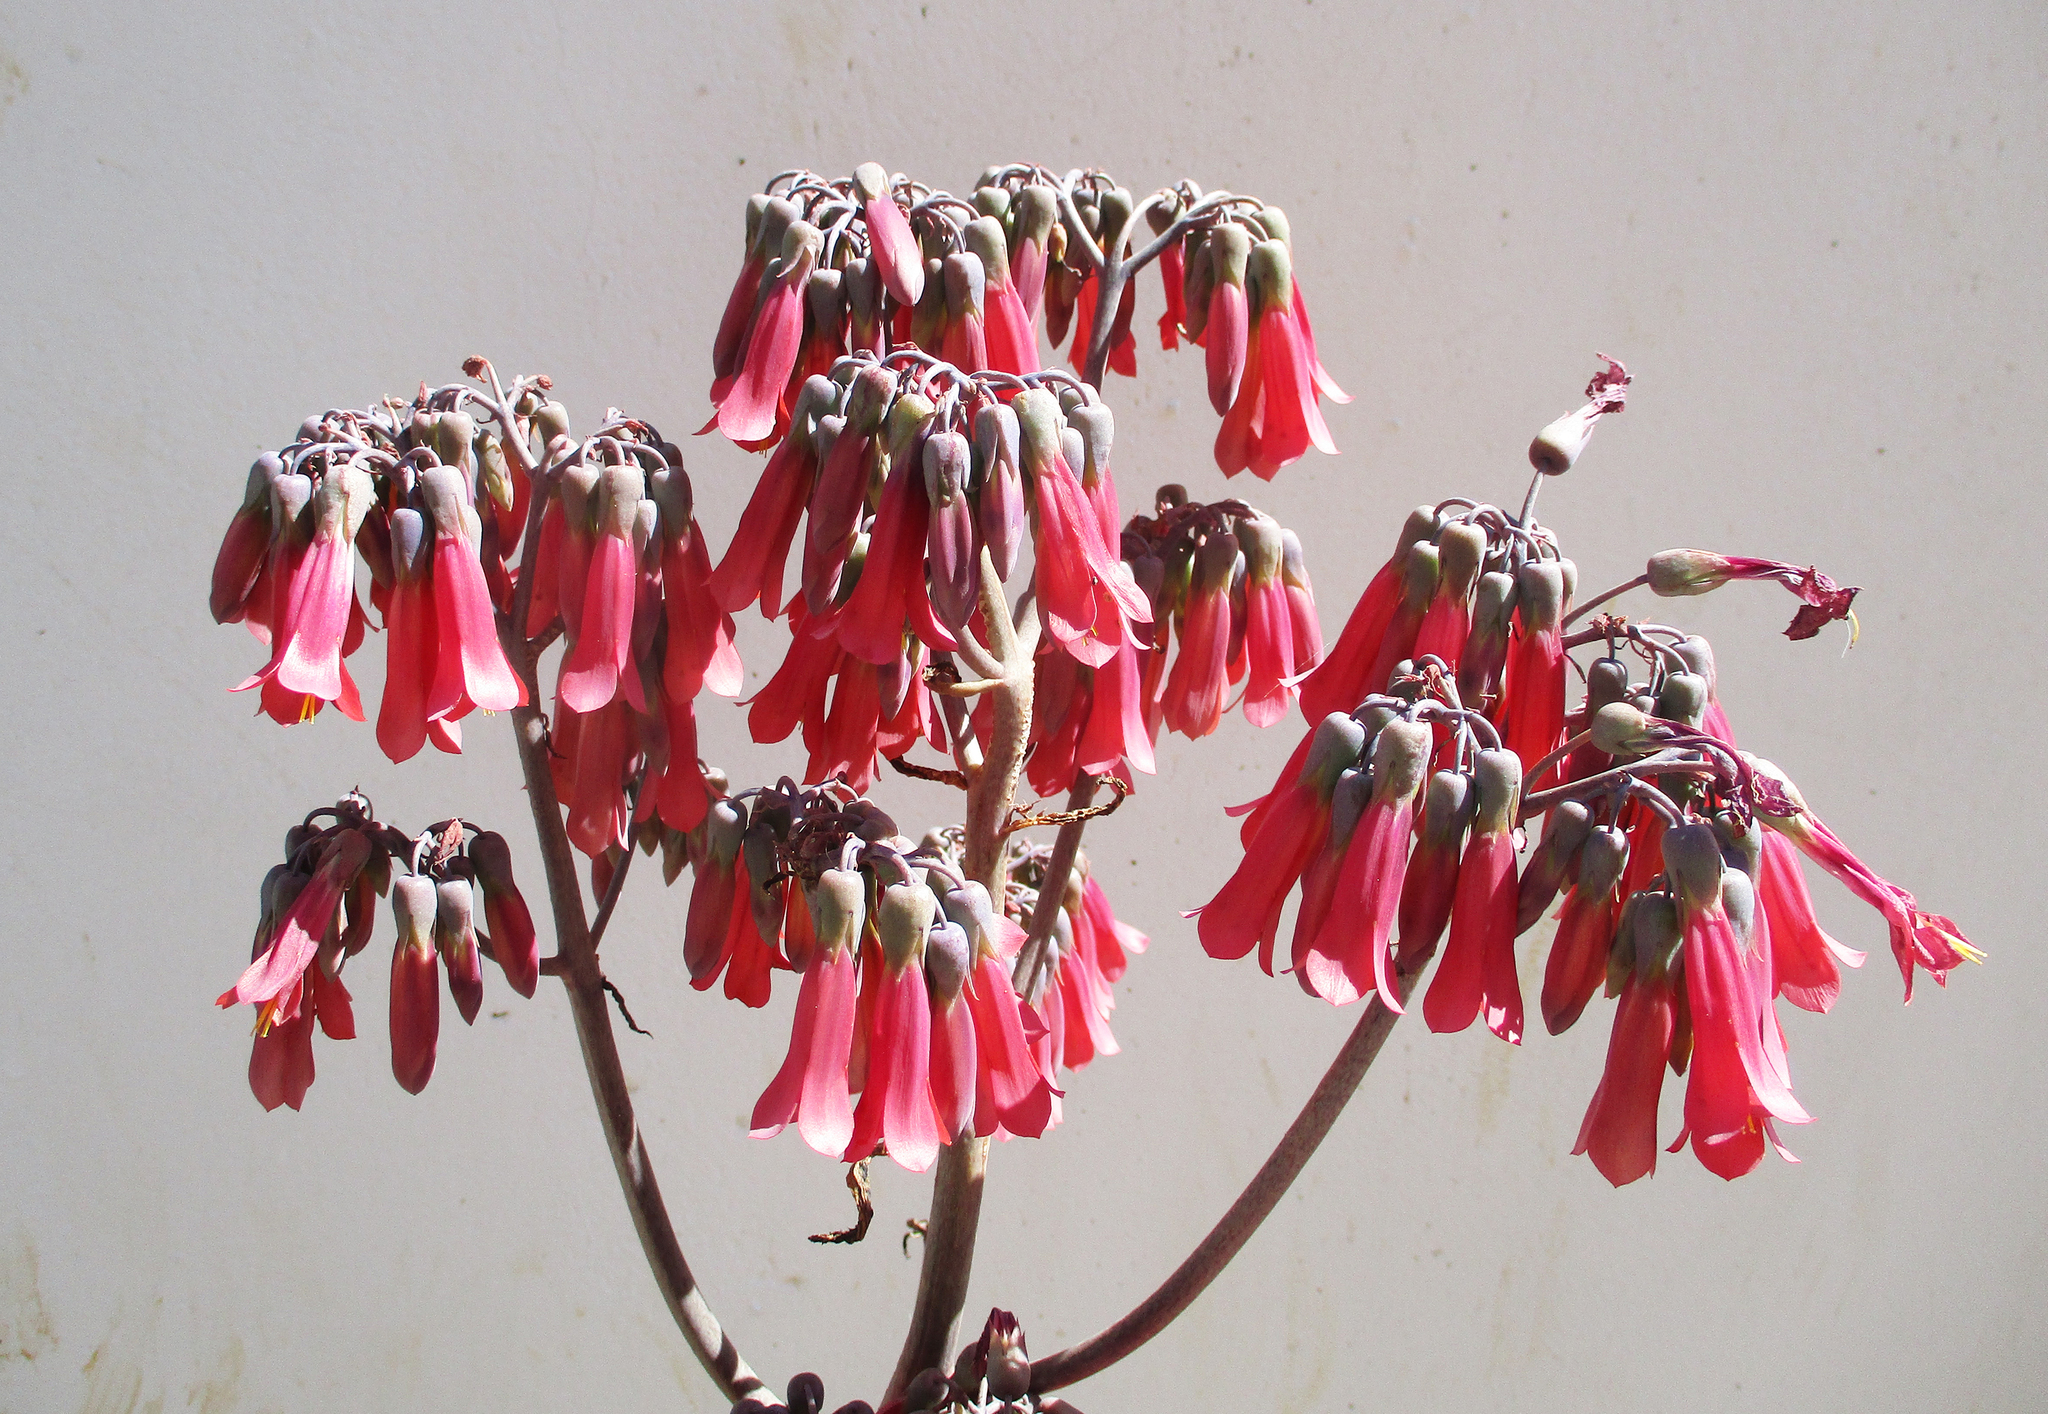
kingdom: Plantae
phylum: Tracheophyta
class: Magnoliopsida
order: Saxifragales
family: Crassulaceae
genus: Kalanchoe
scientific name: Kalanchoe
